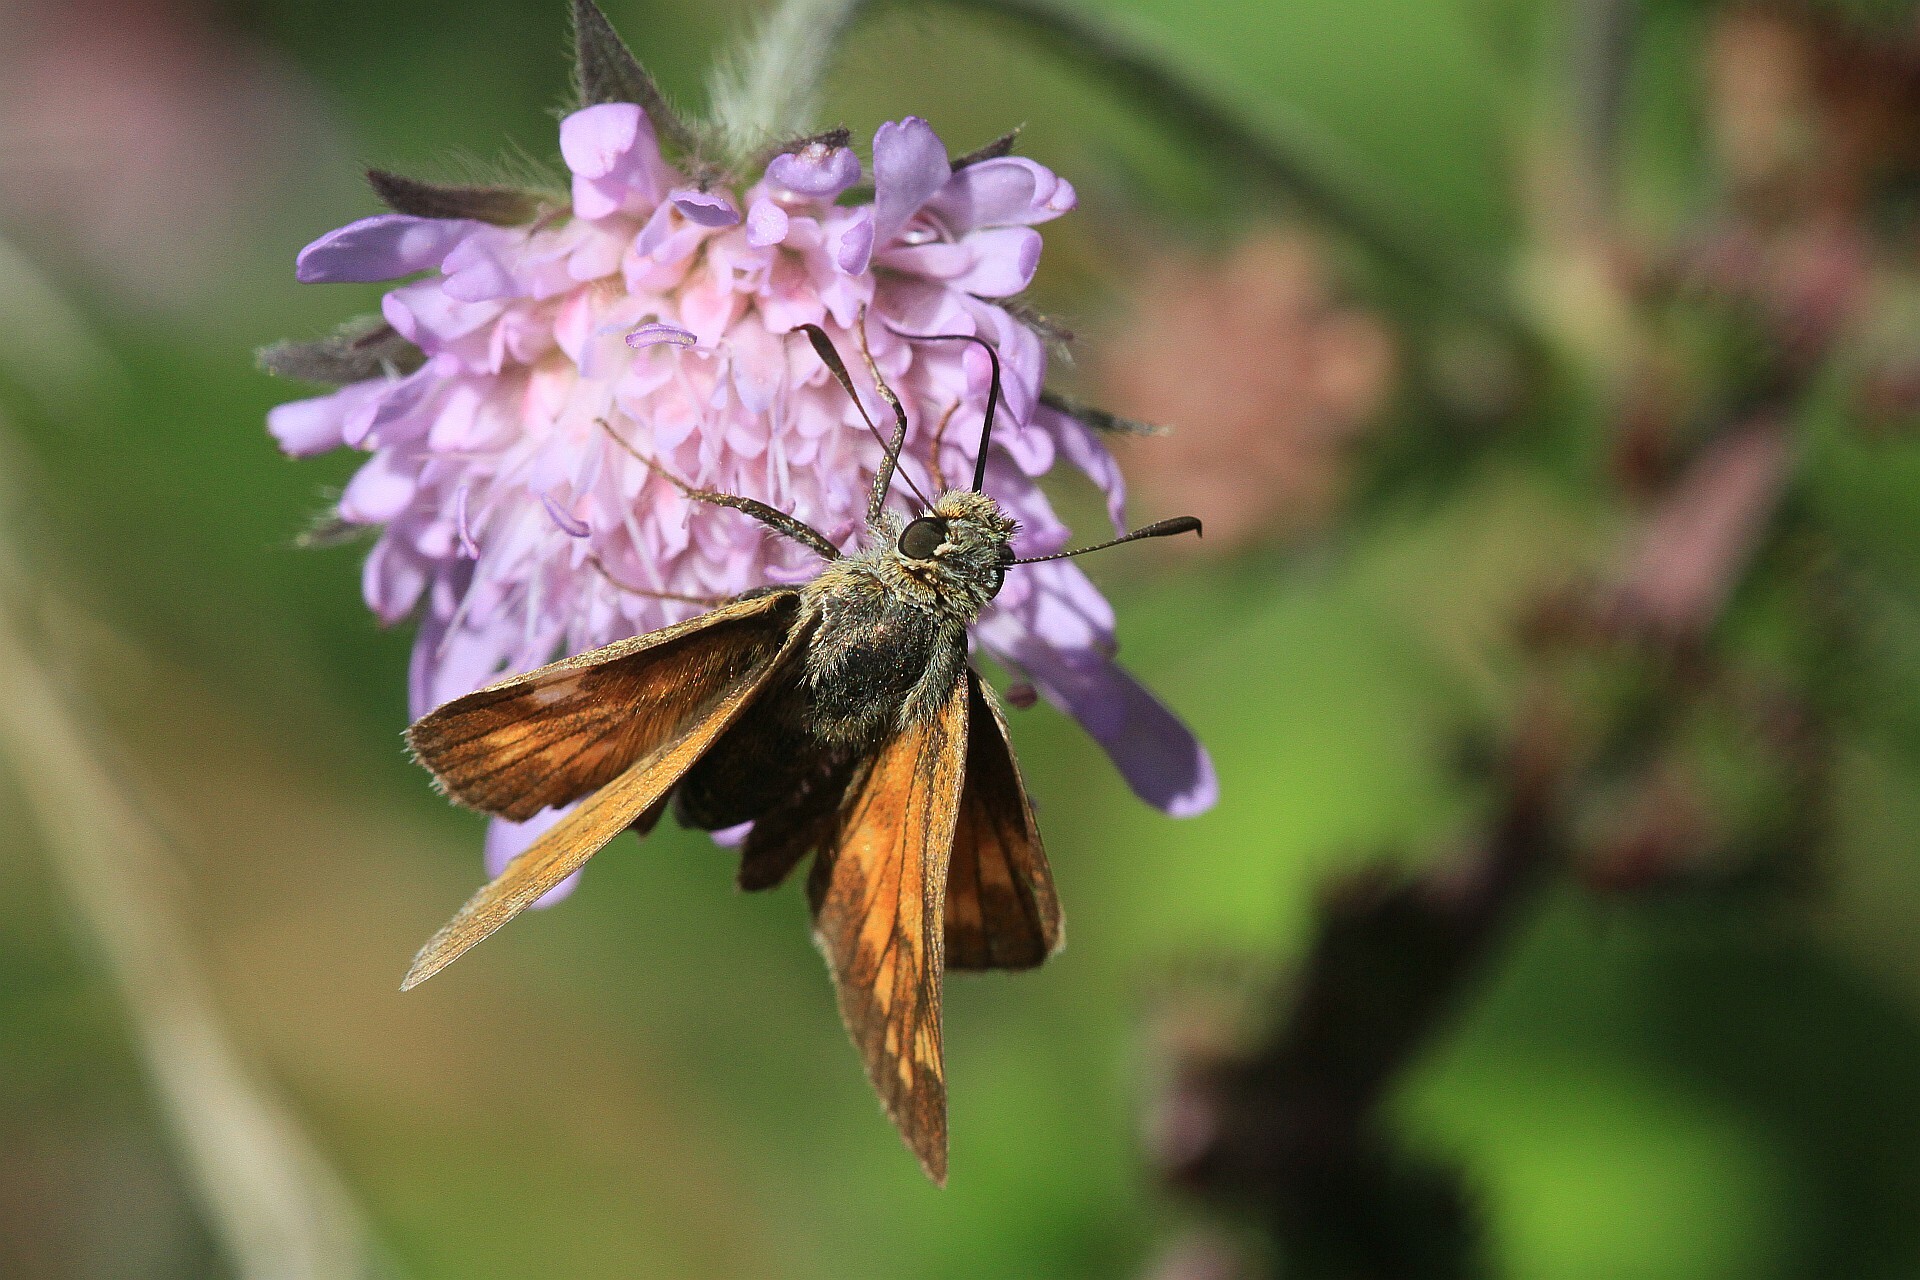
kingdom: Animalia
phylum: Arthropoda
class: Insecta
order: Lepidoptera
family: Hesperiidae
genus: Ochlodes
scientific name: Ochlodes venata
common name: Large skipper
